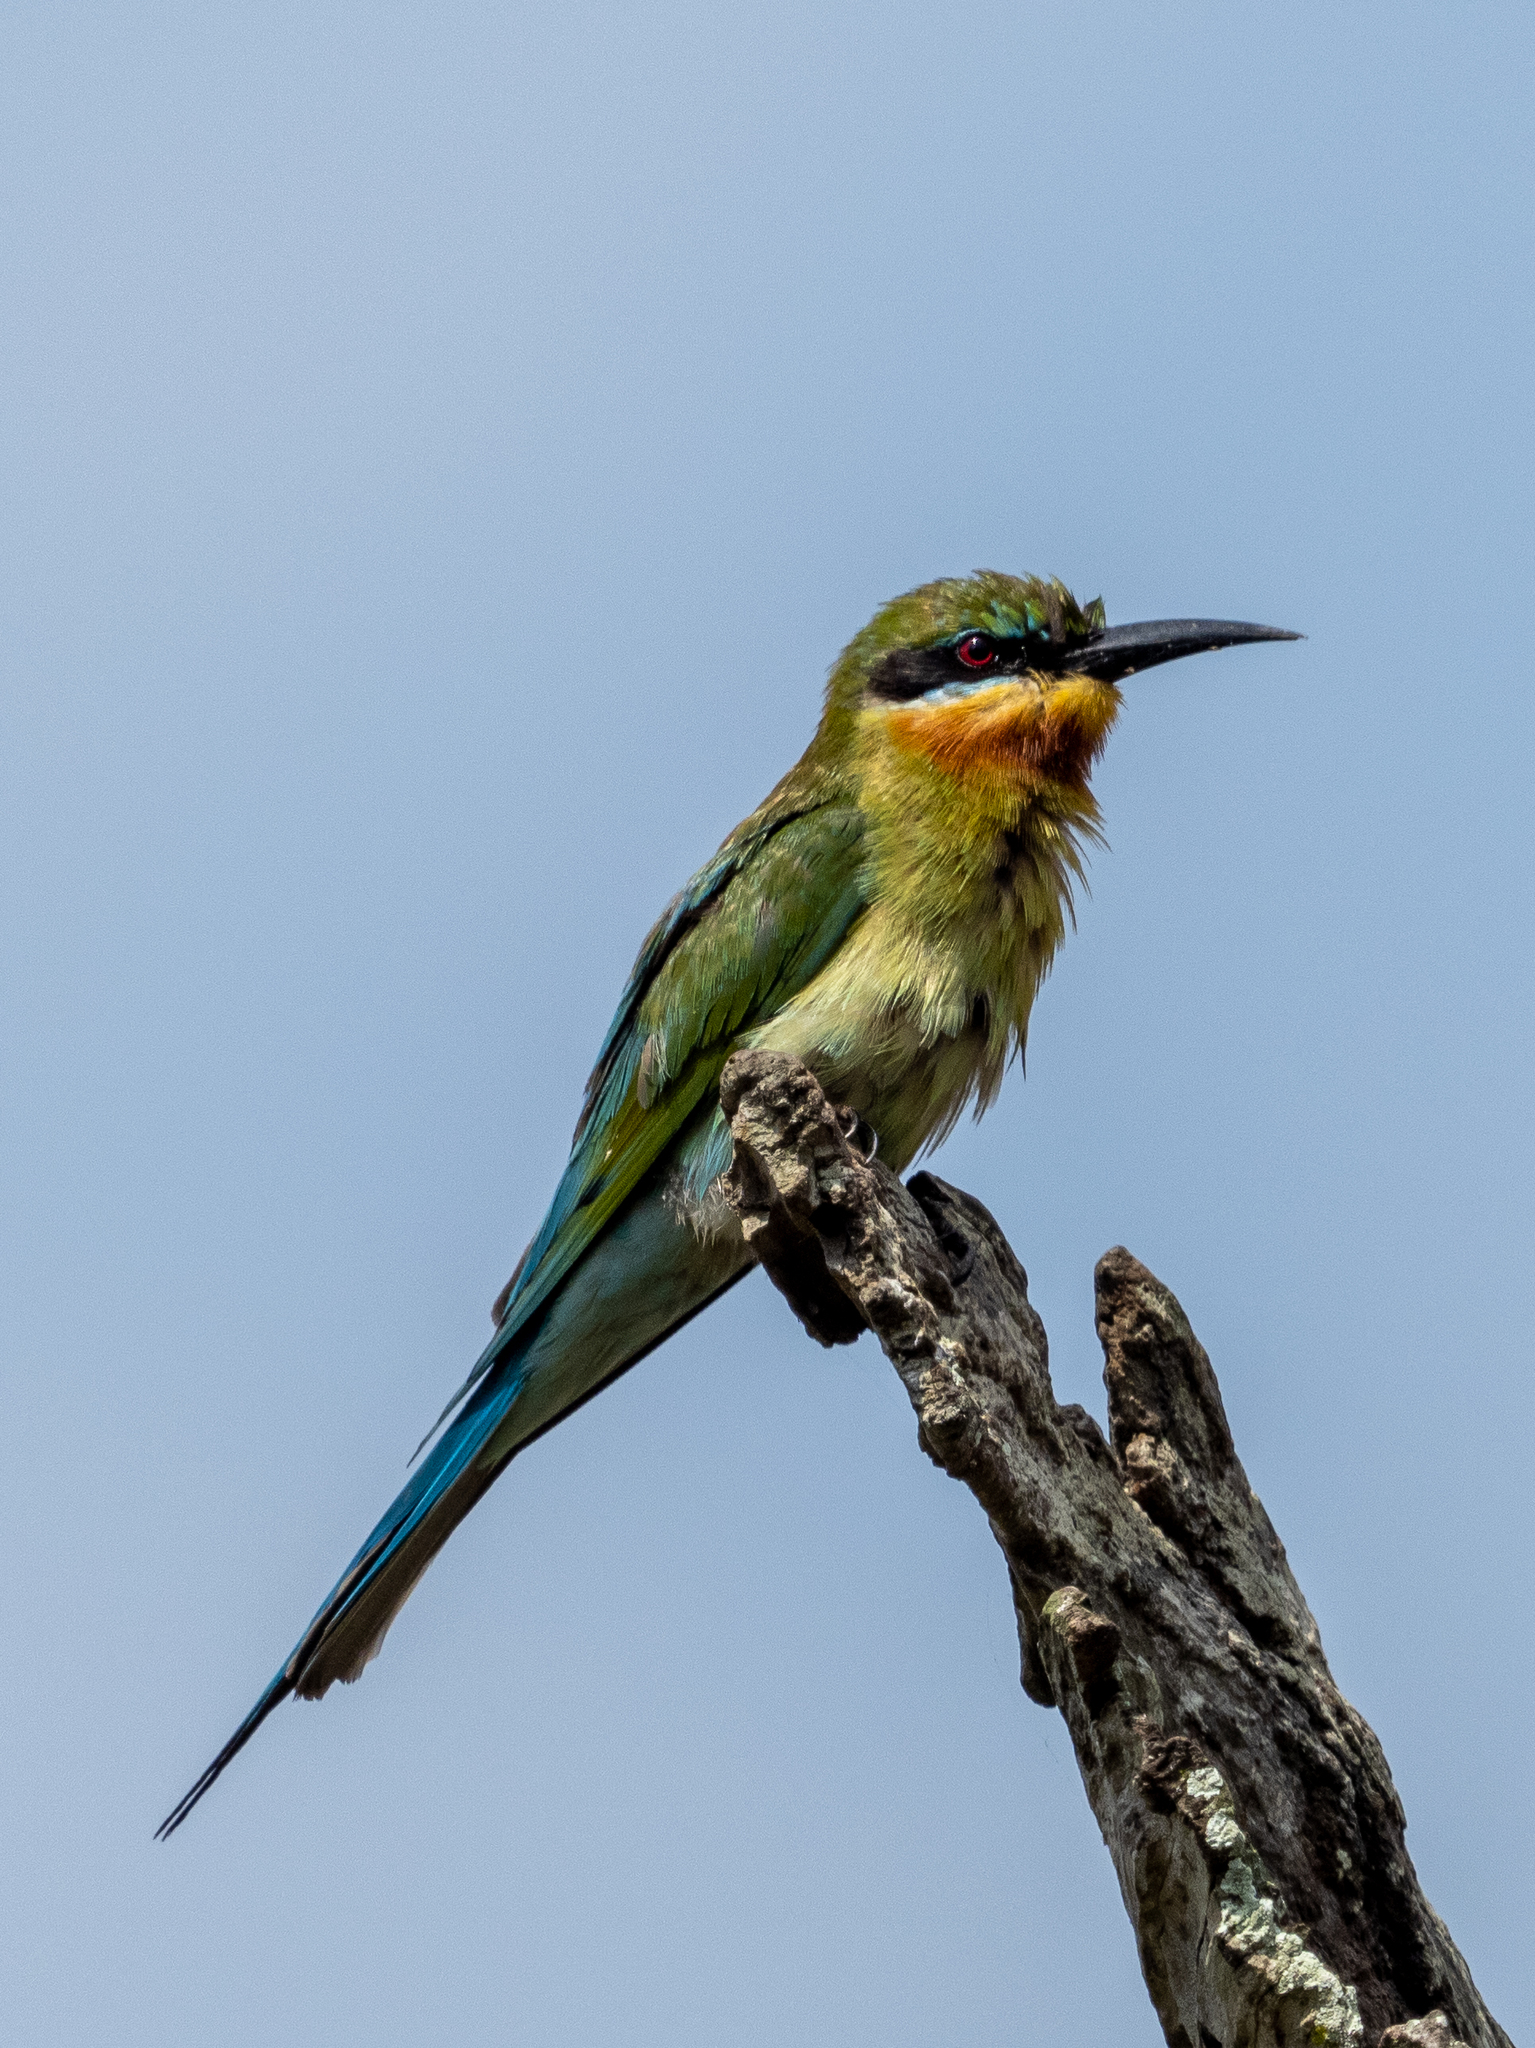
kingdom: Animalia
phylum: Chordata
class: Aves
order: Coraciiformes
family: Meropidae
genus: Merops
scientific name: Merops philippinus
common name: Blue-tailed bee-eater
